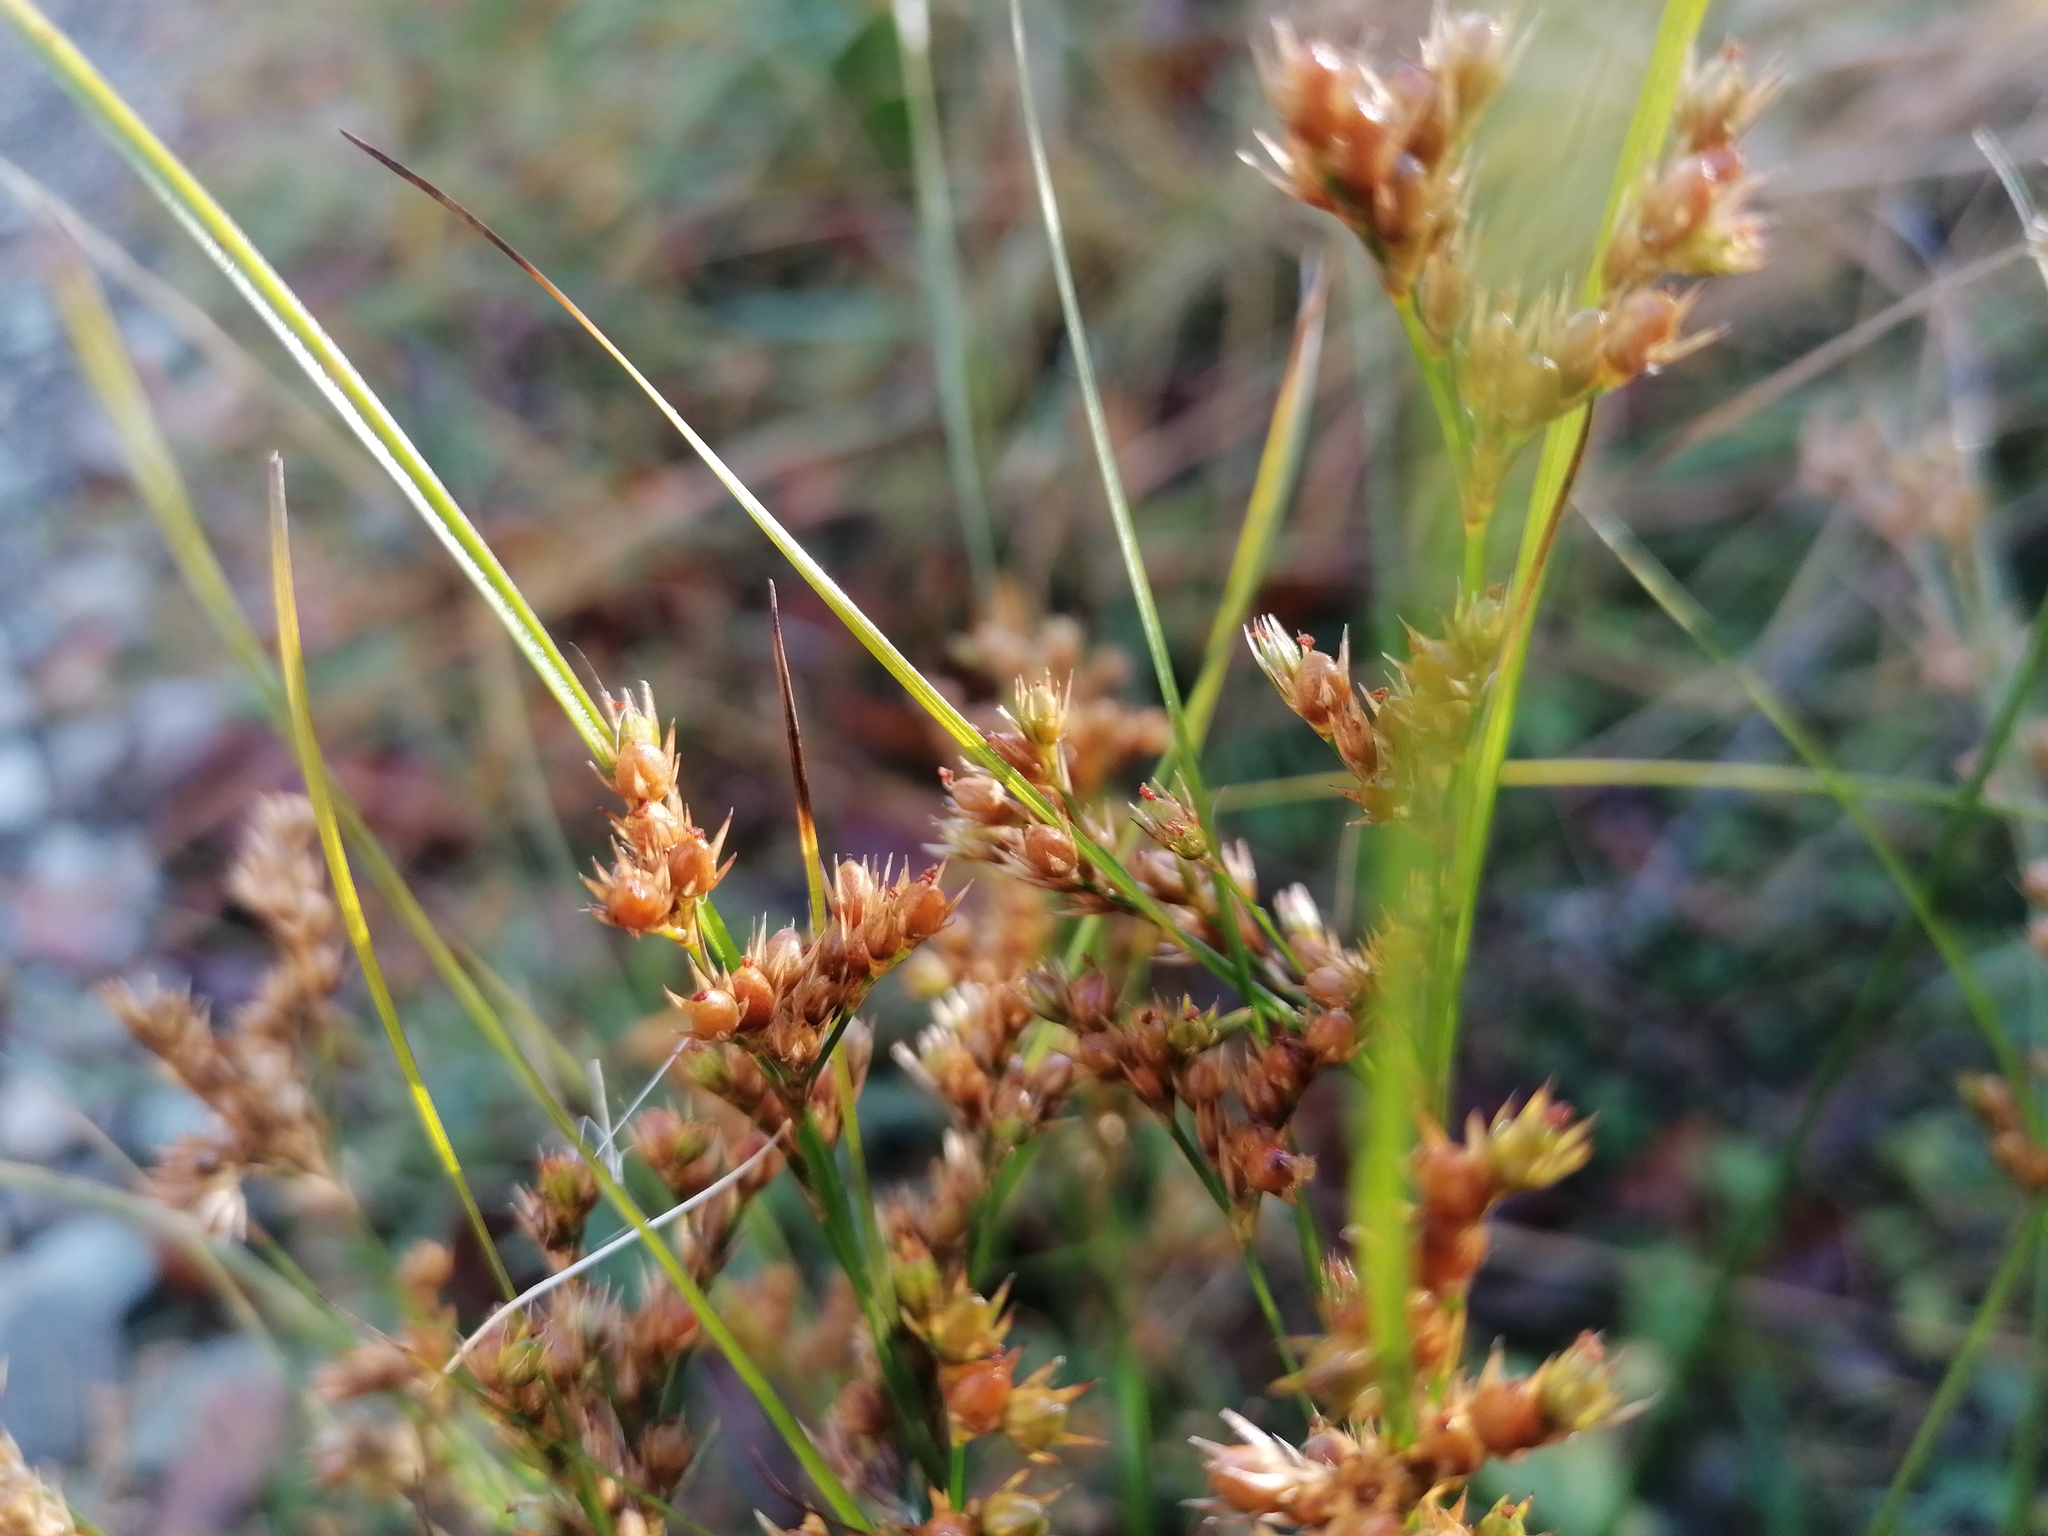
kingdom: Plantae
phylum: Tracheophyta
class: Liliopsida
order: Poales
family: Juncaceae
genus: Juncus
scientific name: Juncus tenuis
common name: Slender rush
